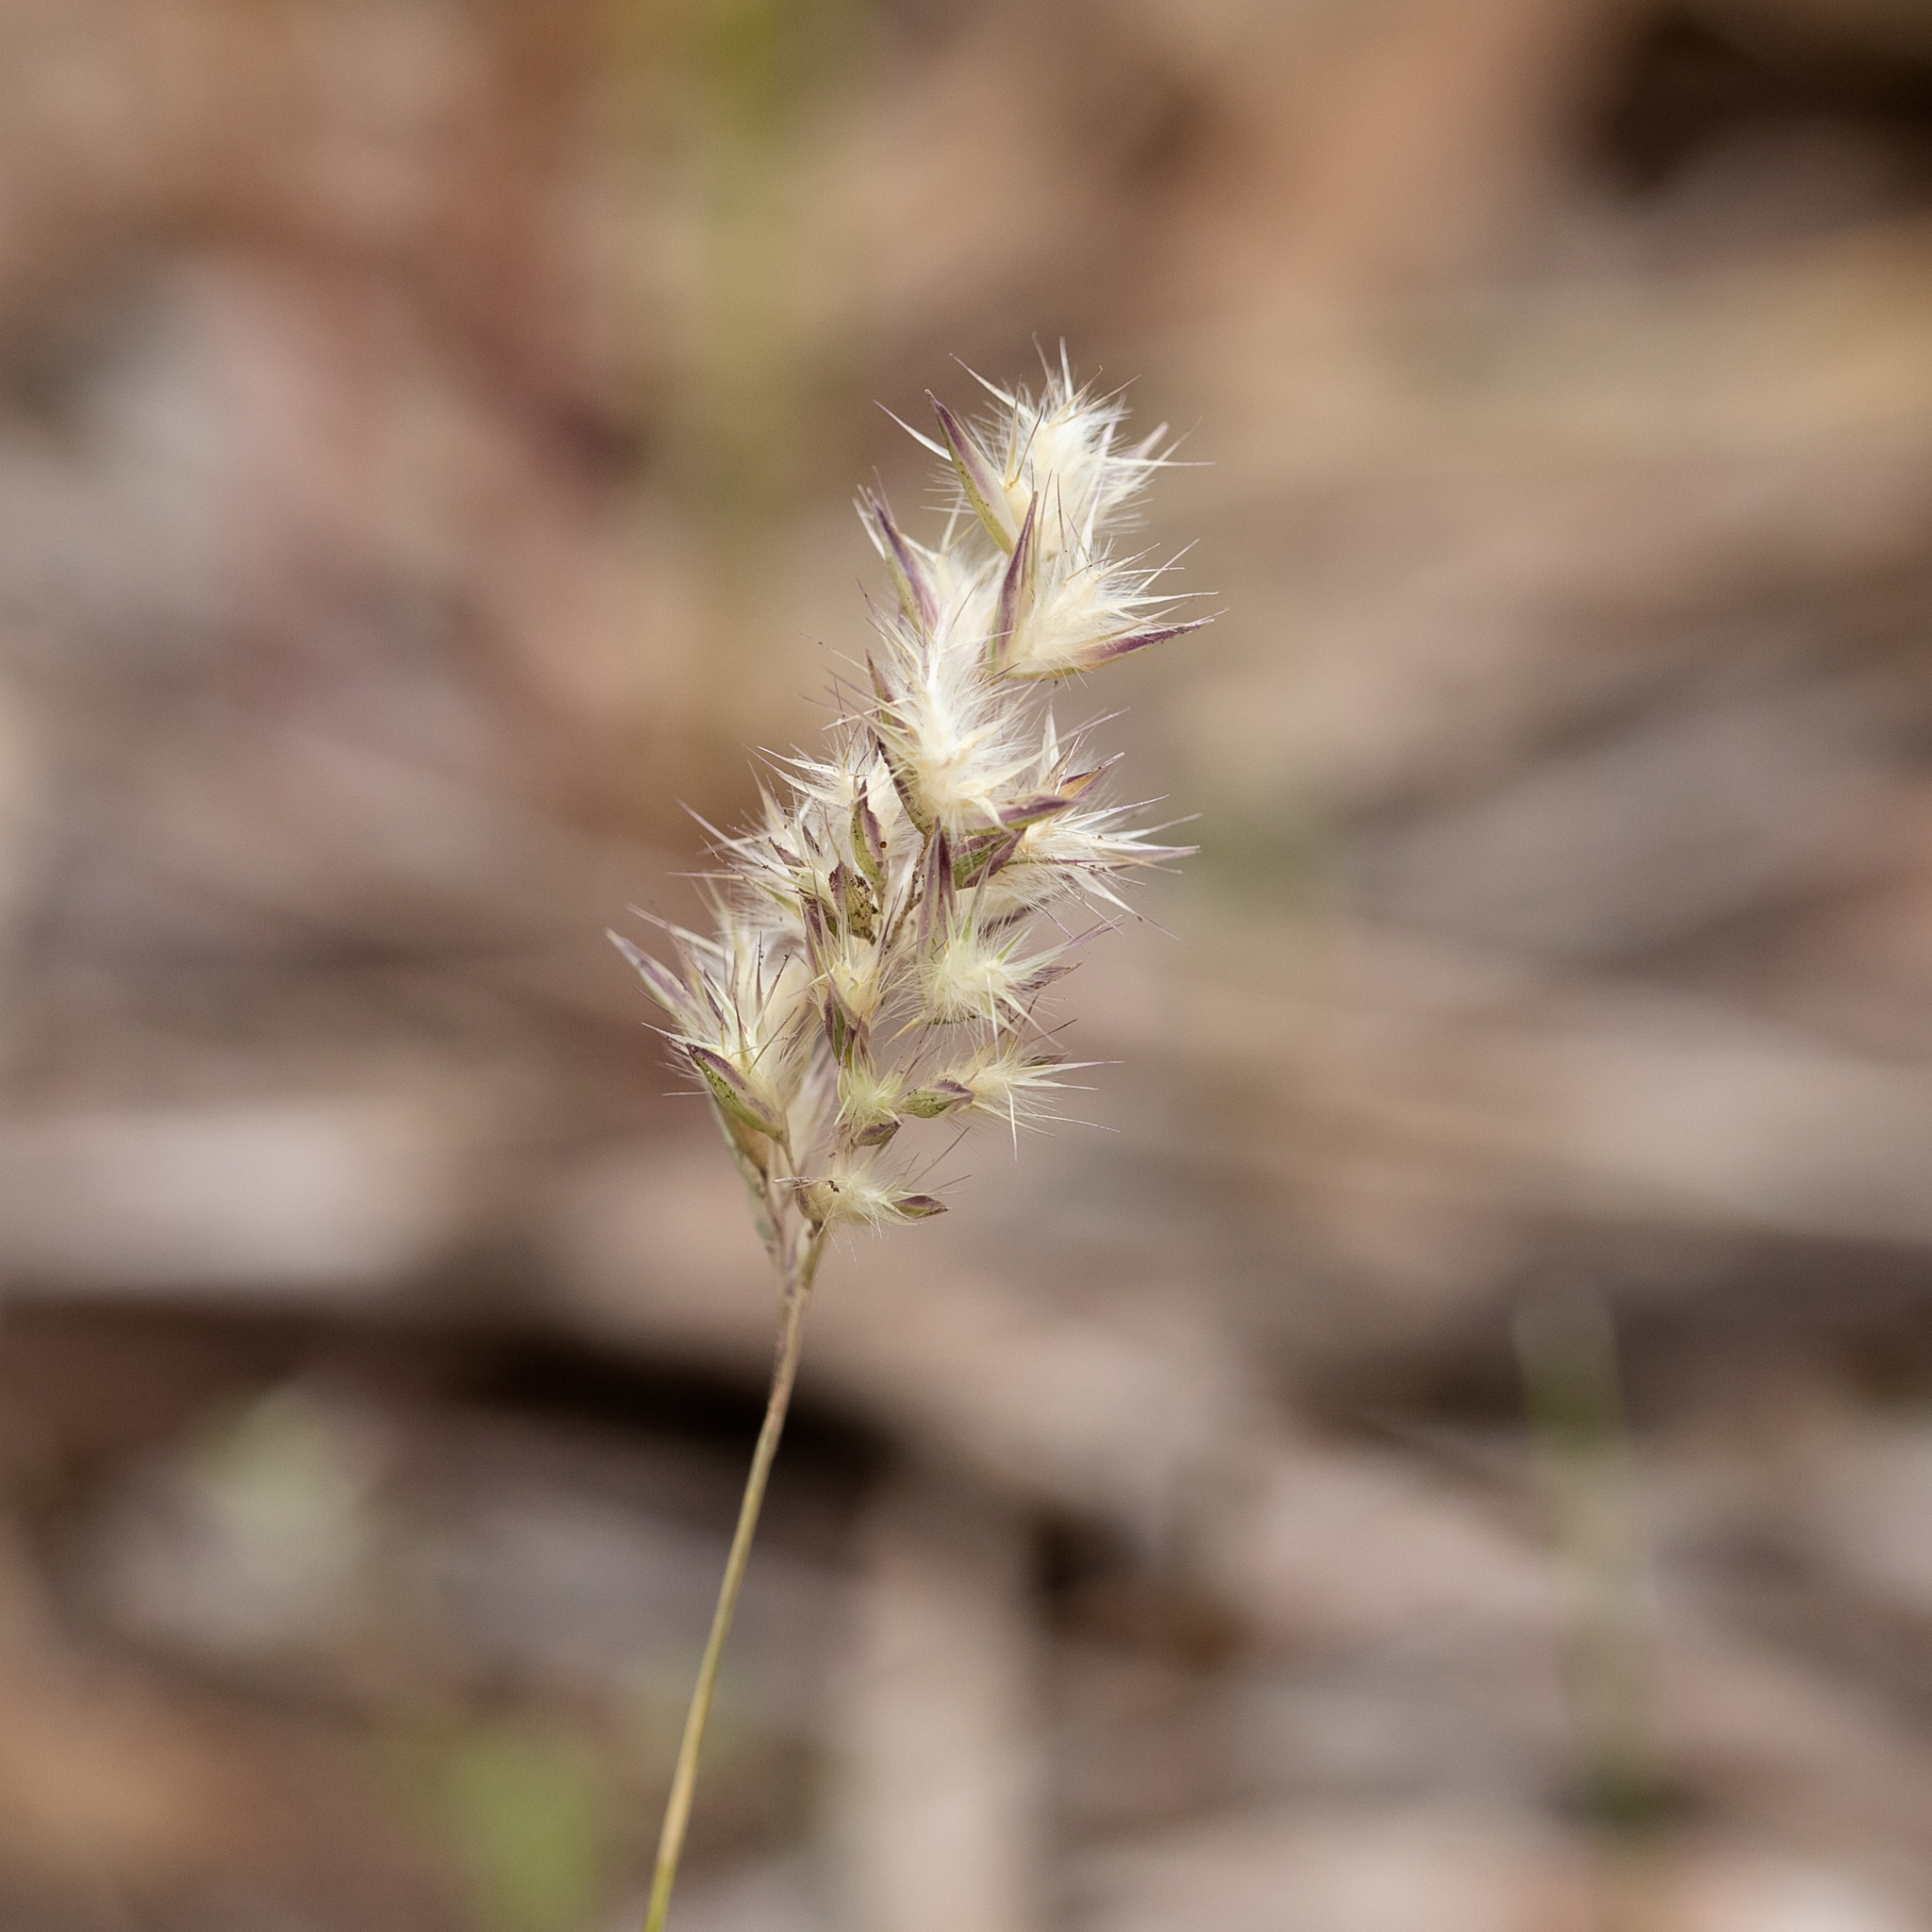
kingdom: Plantae
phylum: Tracheophyta
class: Liliopsida
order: Poales
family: Poaceae
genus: Rytidosperma
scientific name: Rytidosperma geniculatum
